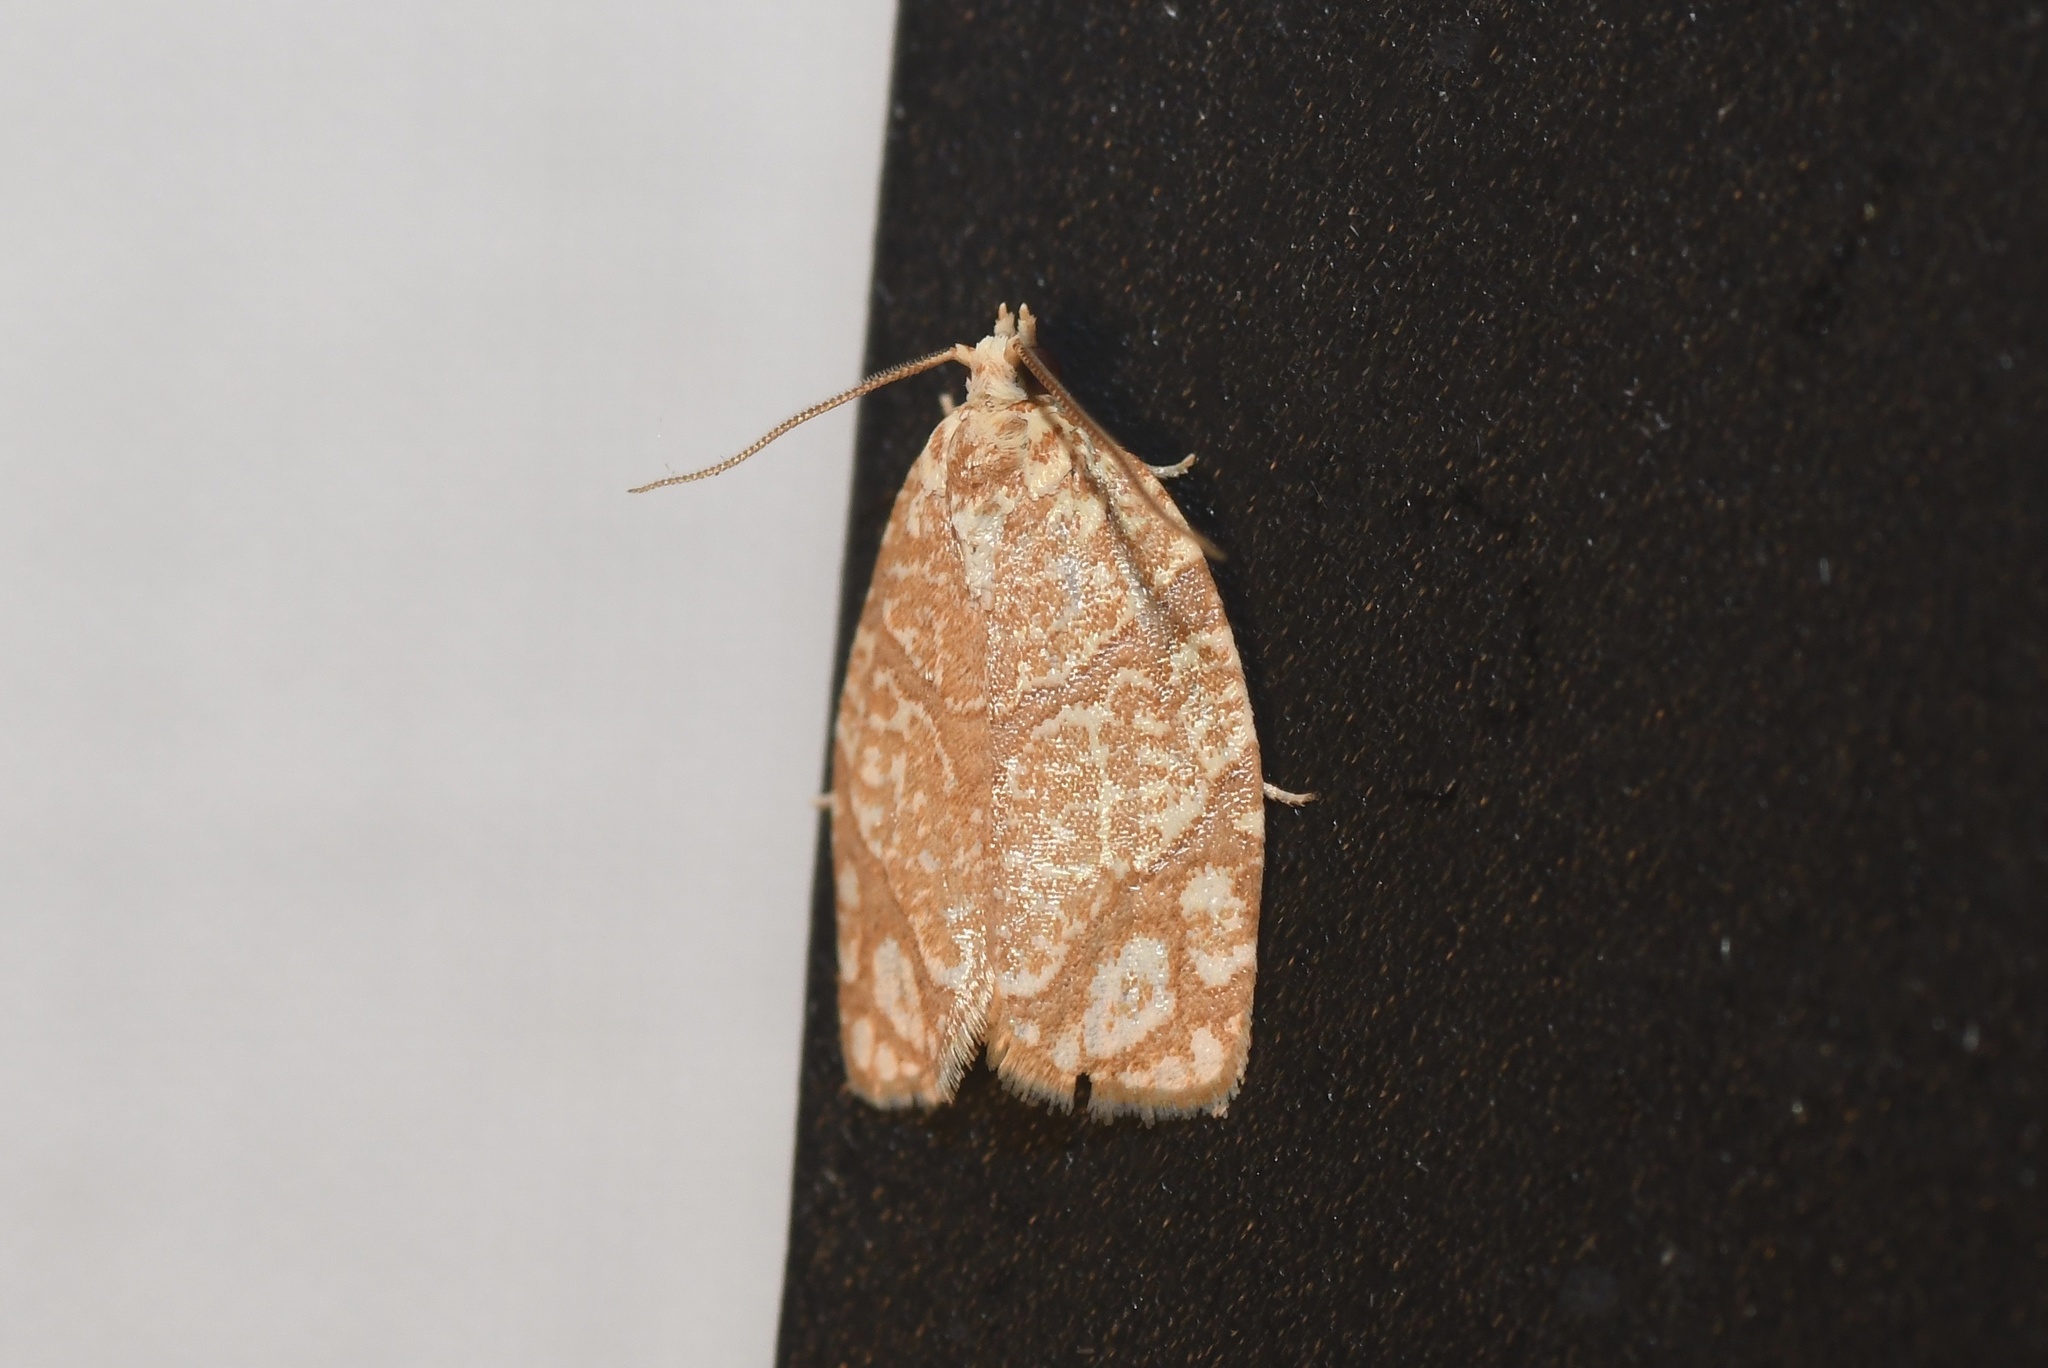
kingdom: Animalia
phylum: Arthropoda
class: Insecta
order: Lepidoptera
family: Tortricidae
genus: Argyrotaenia
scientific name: Argyrotaenia quercifoliana
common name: Yellow-winged oak leafroller moth
